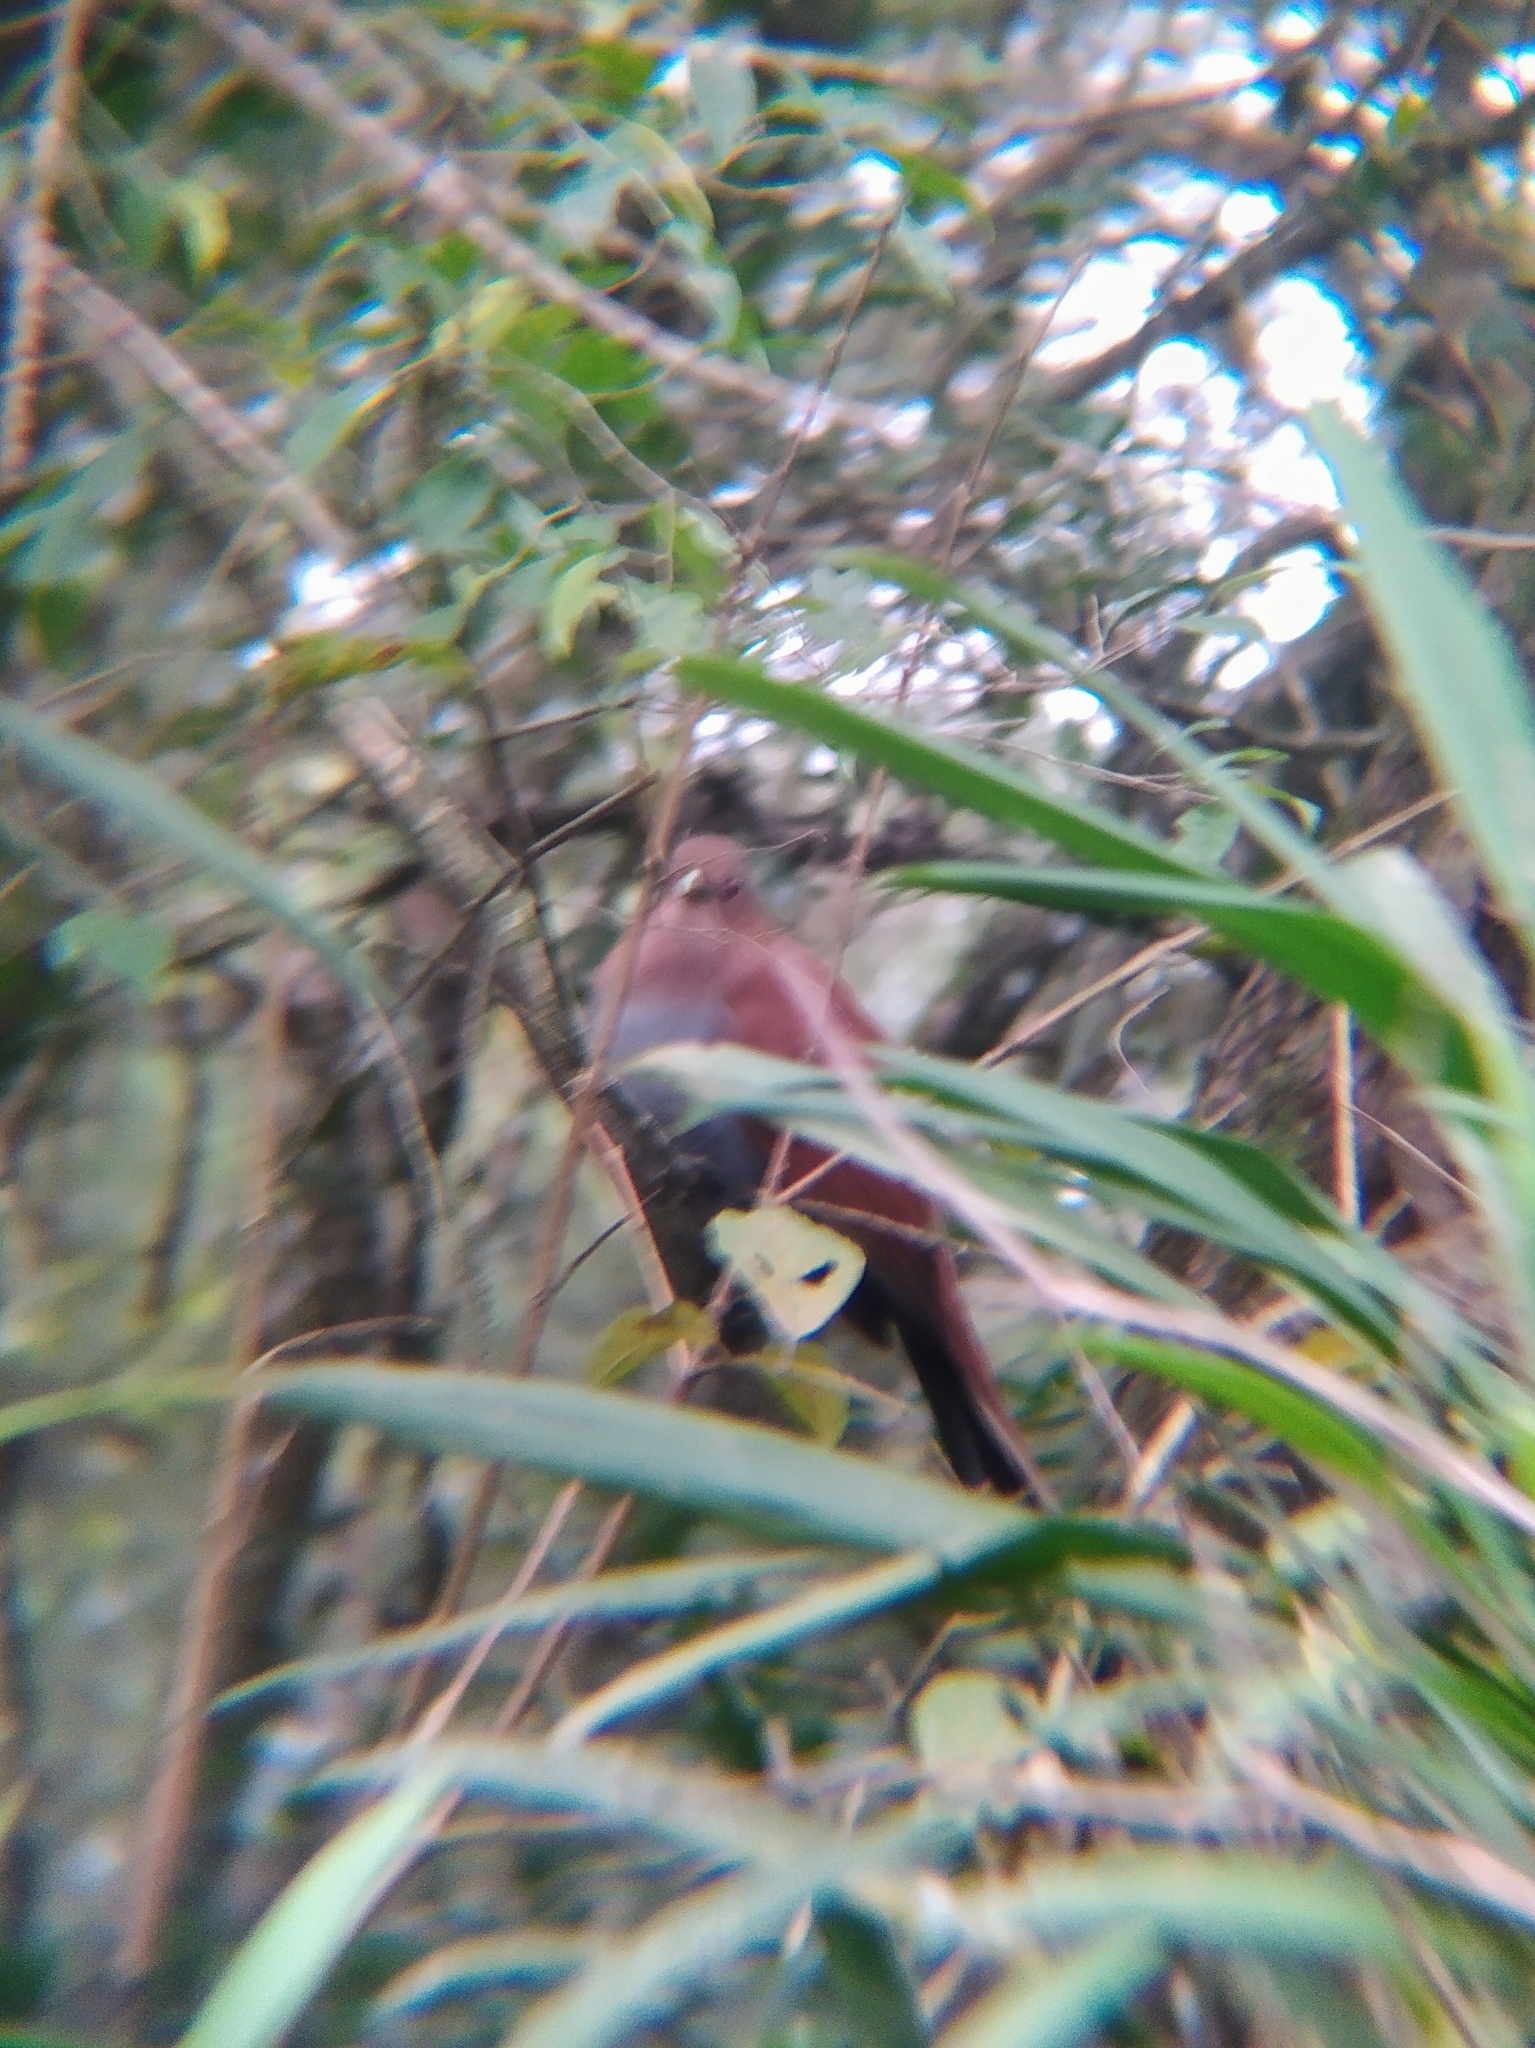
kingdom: Animalia
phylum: Chordata
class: Aves
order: Cuculiformes
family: Cuculidae
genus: Piaya
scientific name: Piaya cayana
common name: Squirrel cuckoo
